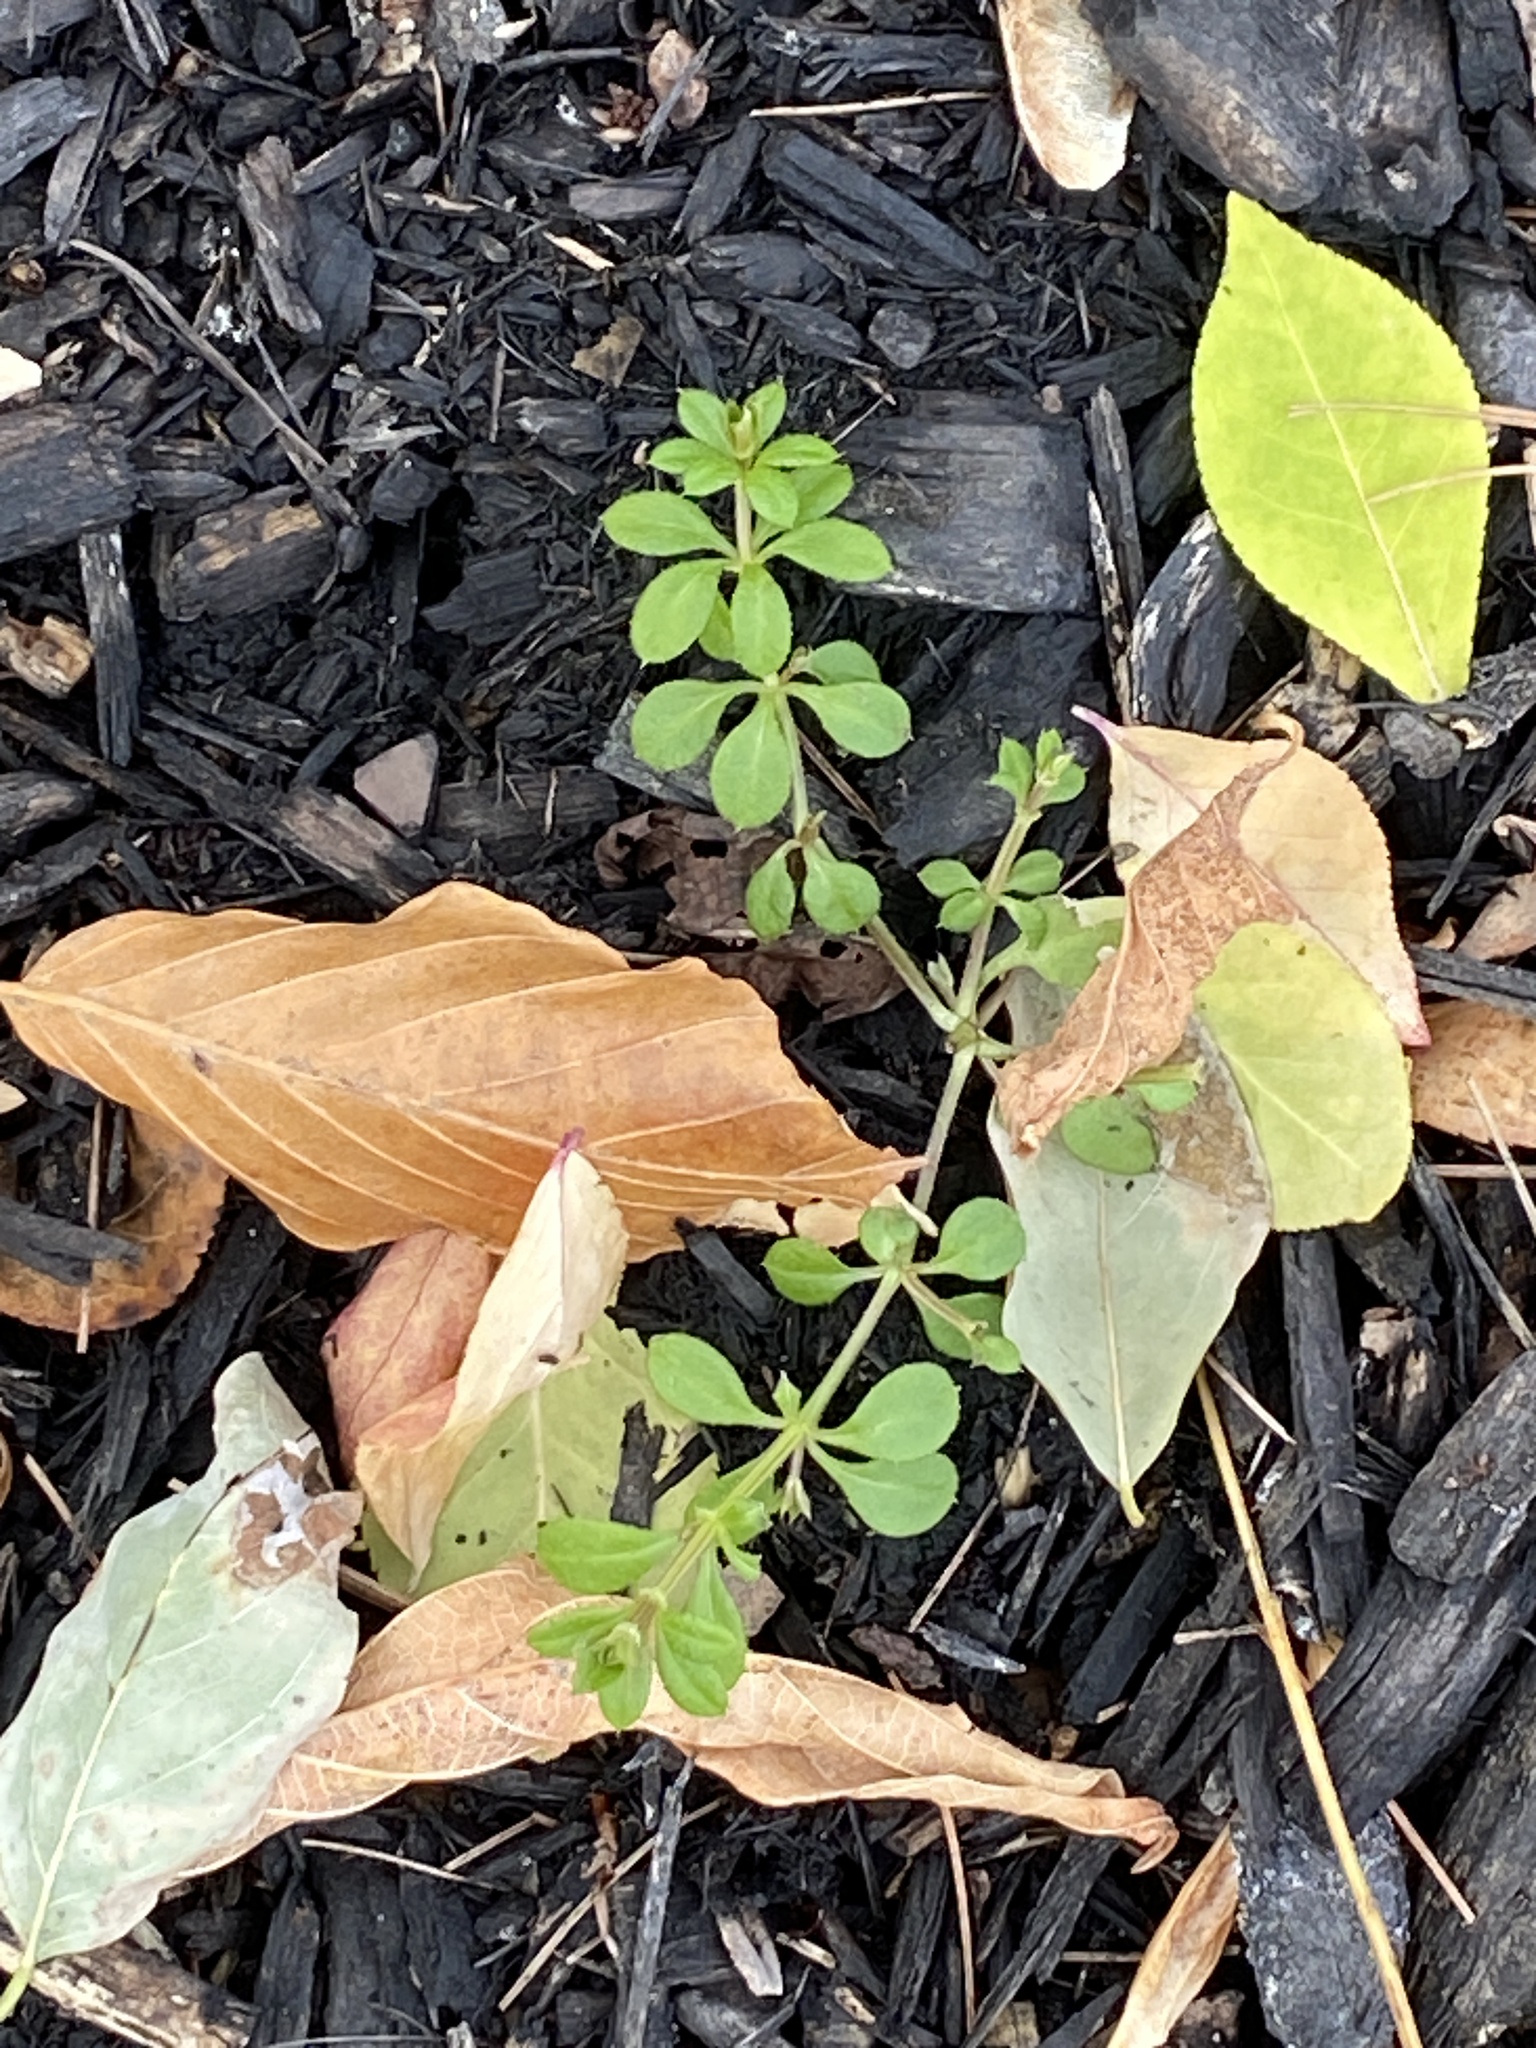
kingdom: Plantae
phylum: Tracheophyta
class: Magnoliopsida
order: Gentianales
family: Rubiaceae
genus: Galium
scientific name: Galium aparine
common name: Cleavers
